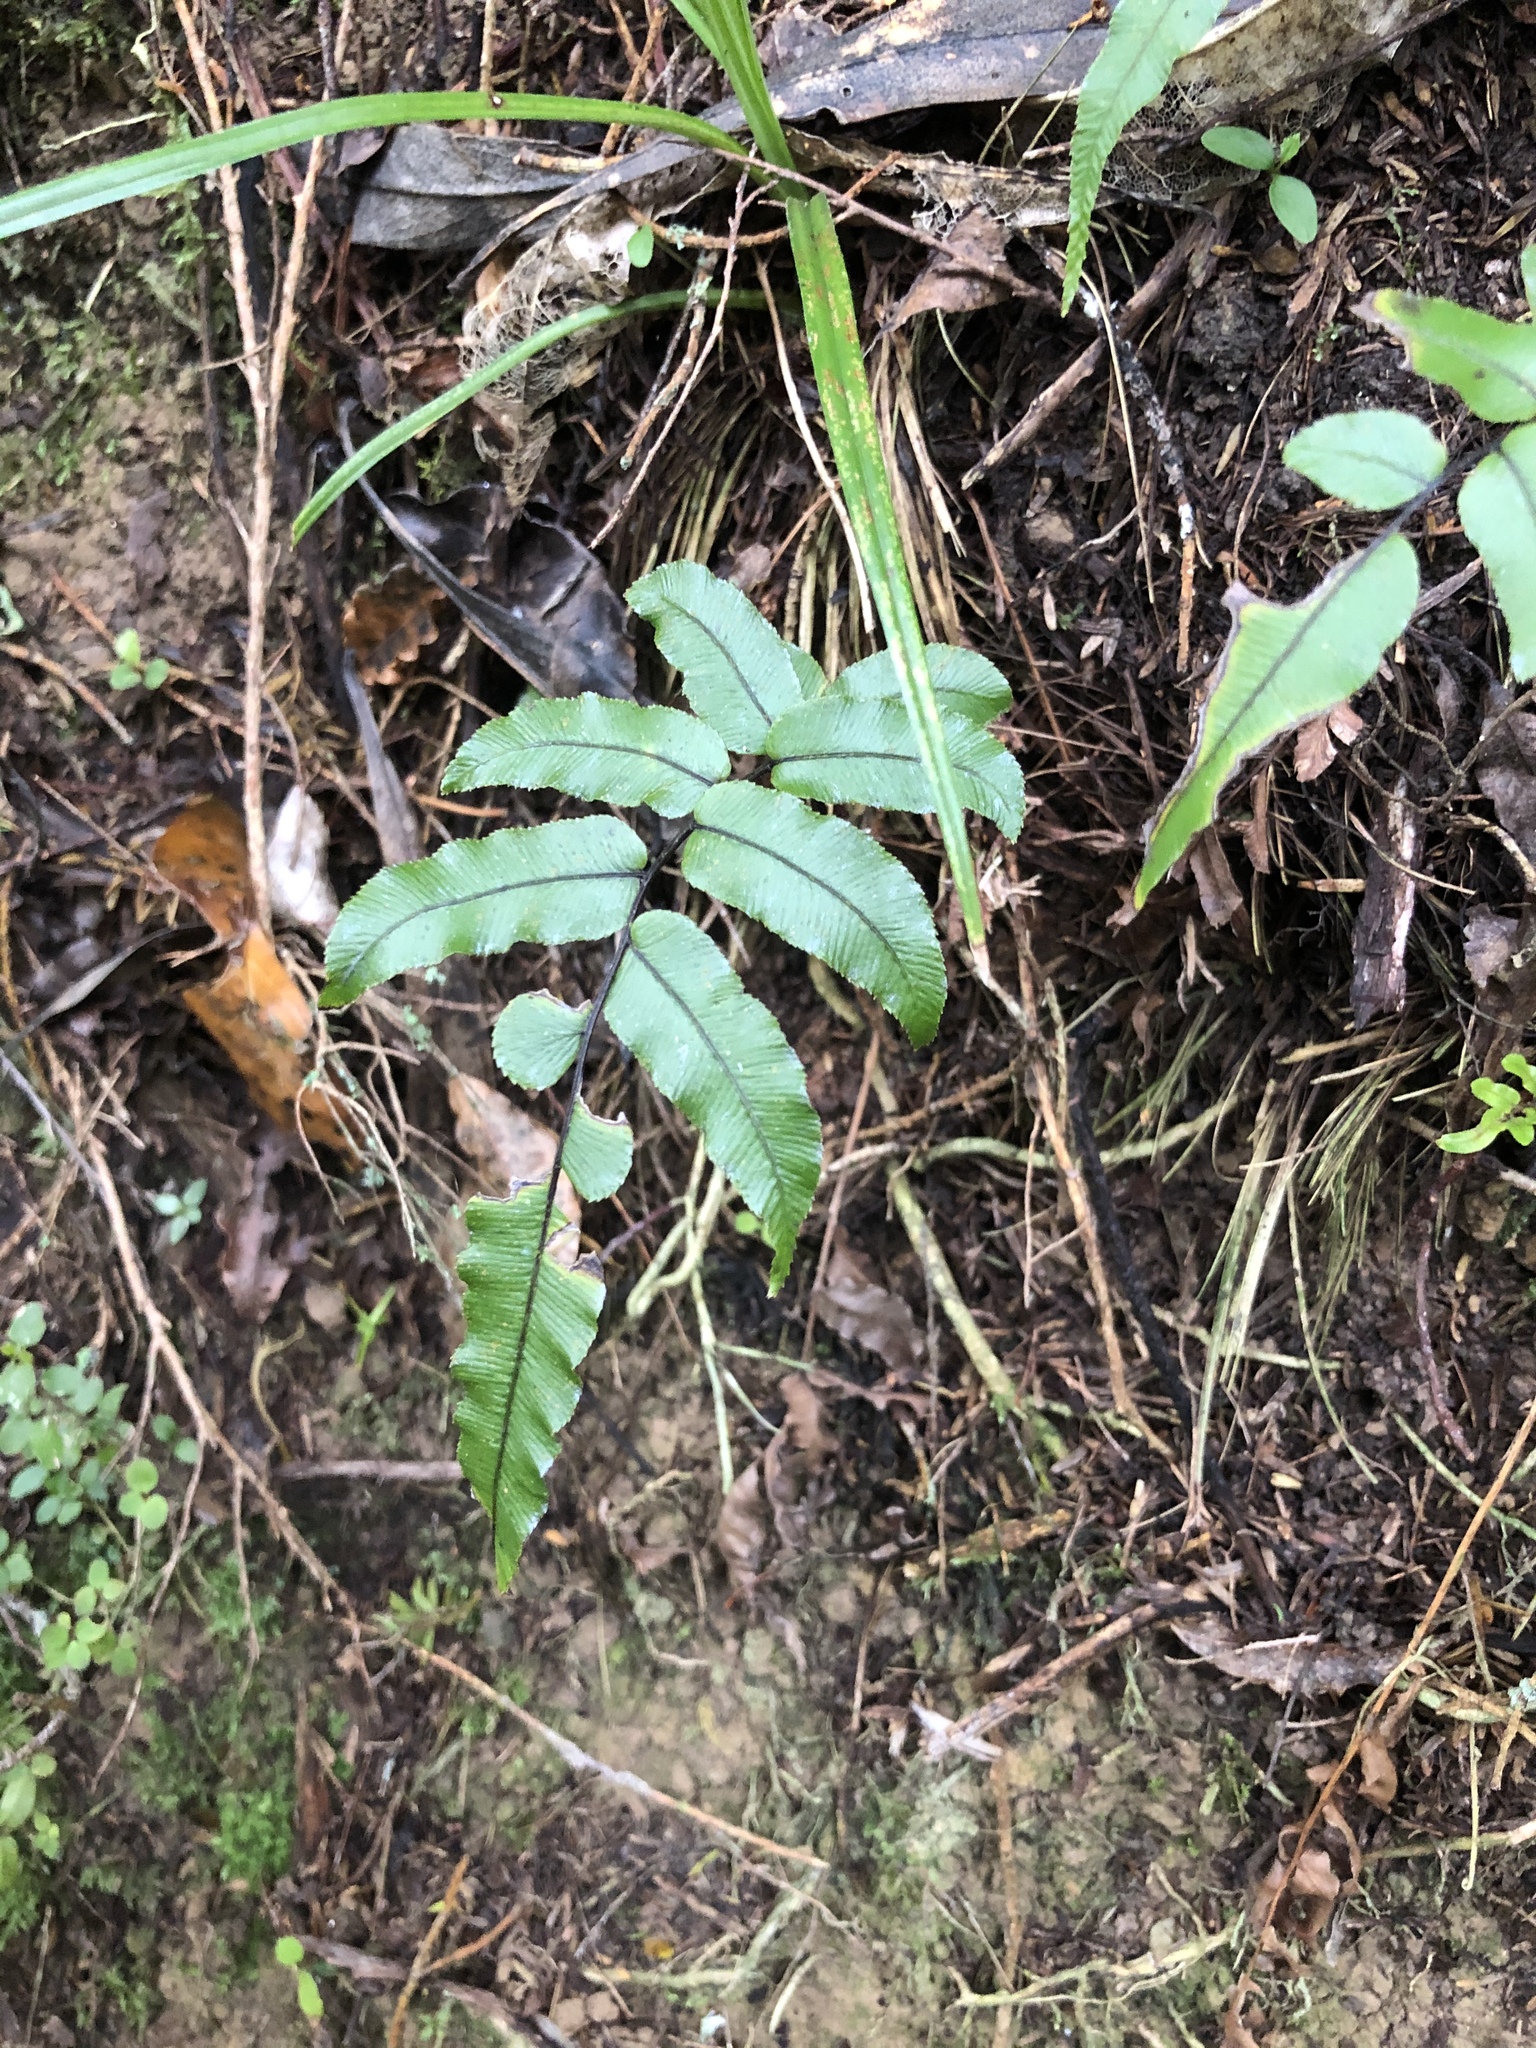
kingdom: Plantae
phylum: Tracheophyta
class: Polypodiopsida
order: Polypodiales
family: Blechnaceae
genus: Parablechnum
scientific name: Parablechnum procerum
